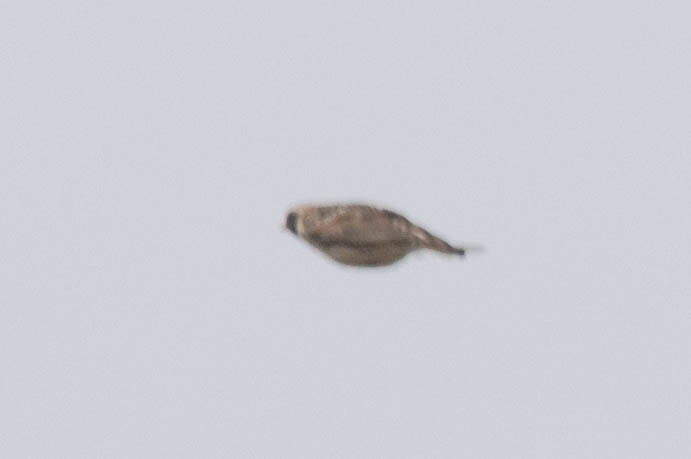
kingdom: Animalia
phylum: Chordata
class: Aves
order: Passeriformes
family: Calcariidae
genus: Calcarius
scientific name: Calcarius lapponicus
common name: Lapland longspur
